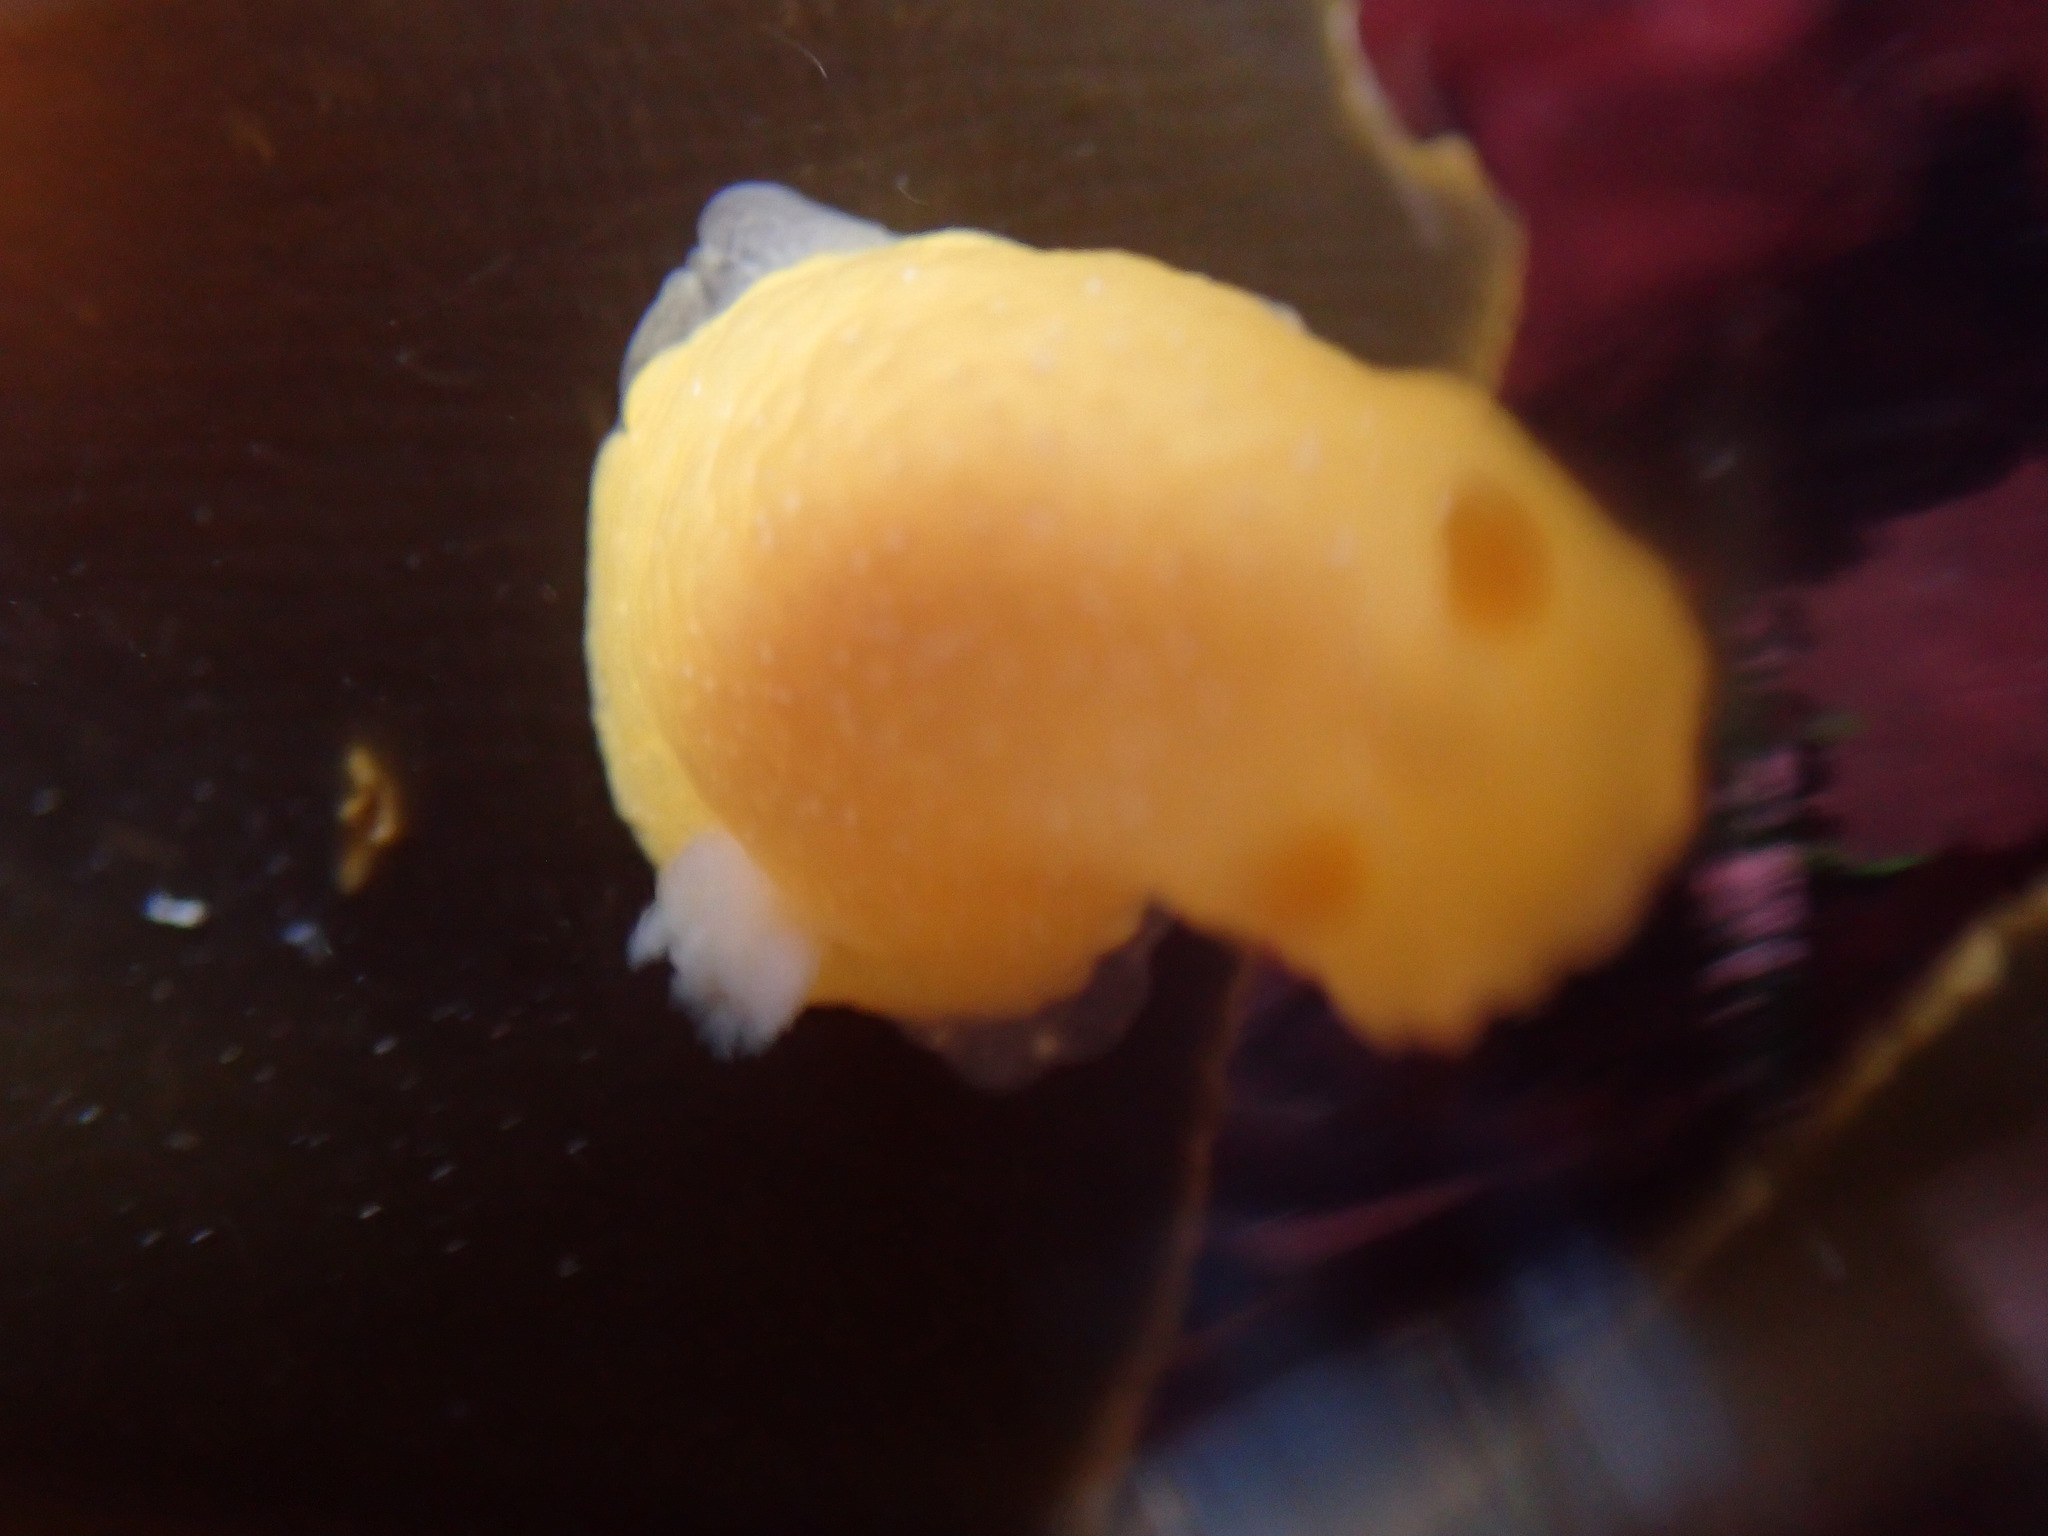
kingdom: Animalia
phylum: Mollusca
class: Gastropoda
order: Nudibranchia
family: Dendrodorididae
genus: Doriopsilla
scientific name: Doriopsilla fulva
